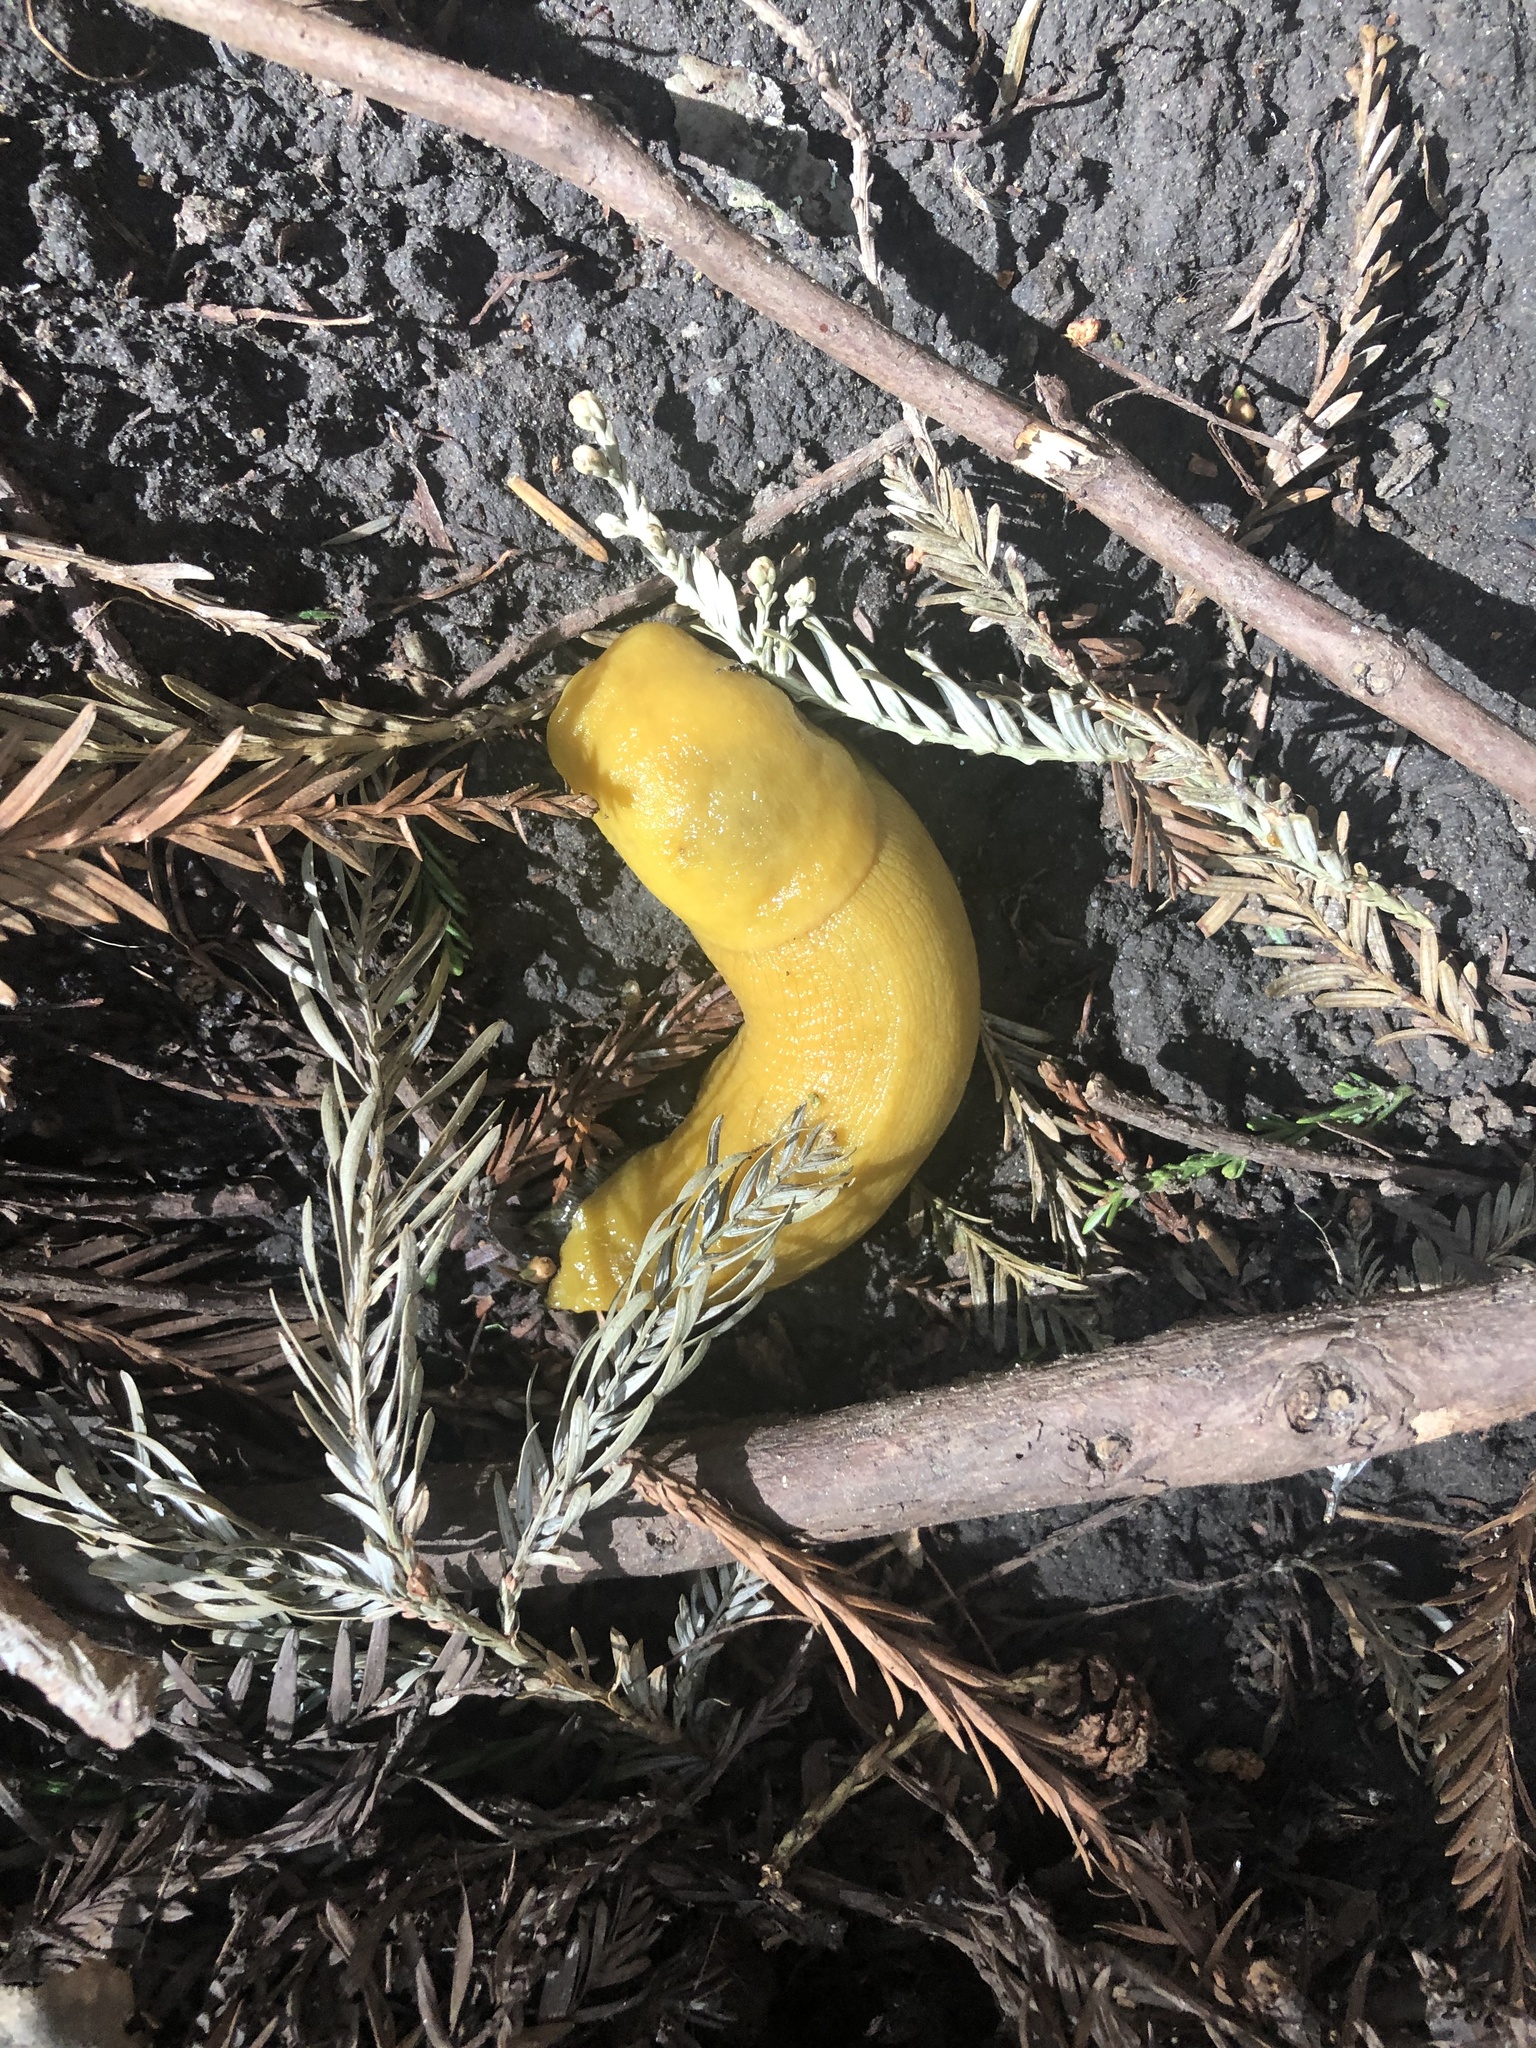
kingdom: Animalia
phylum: Mollusca
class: Gastropoda
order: Stylommatophora
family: Ariolimacidae
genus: Ariolimax
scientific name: Ariolimax dolichophallus
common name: Slender banana slug
